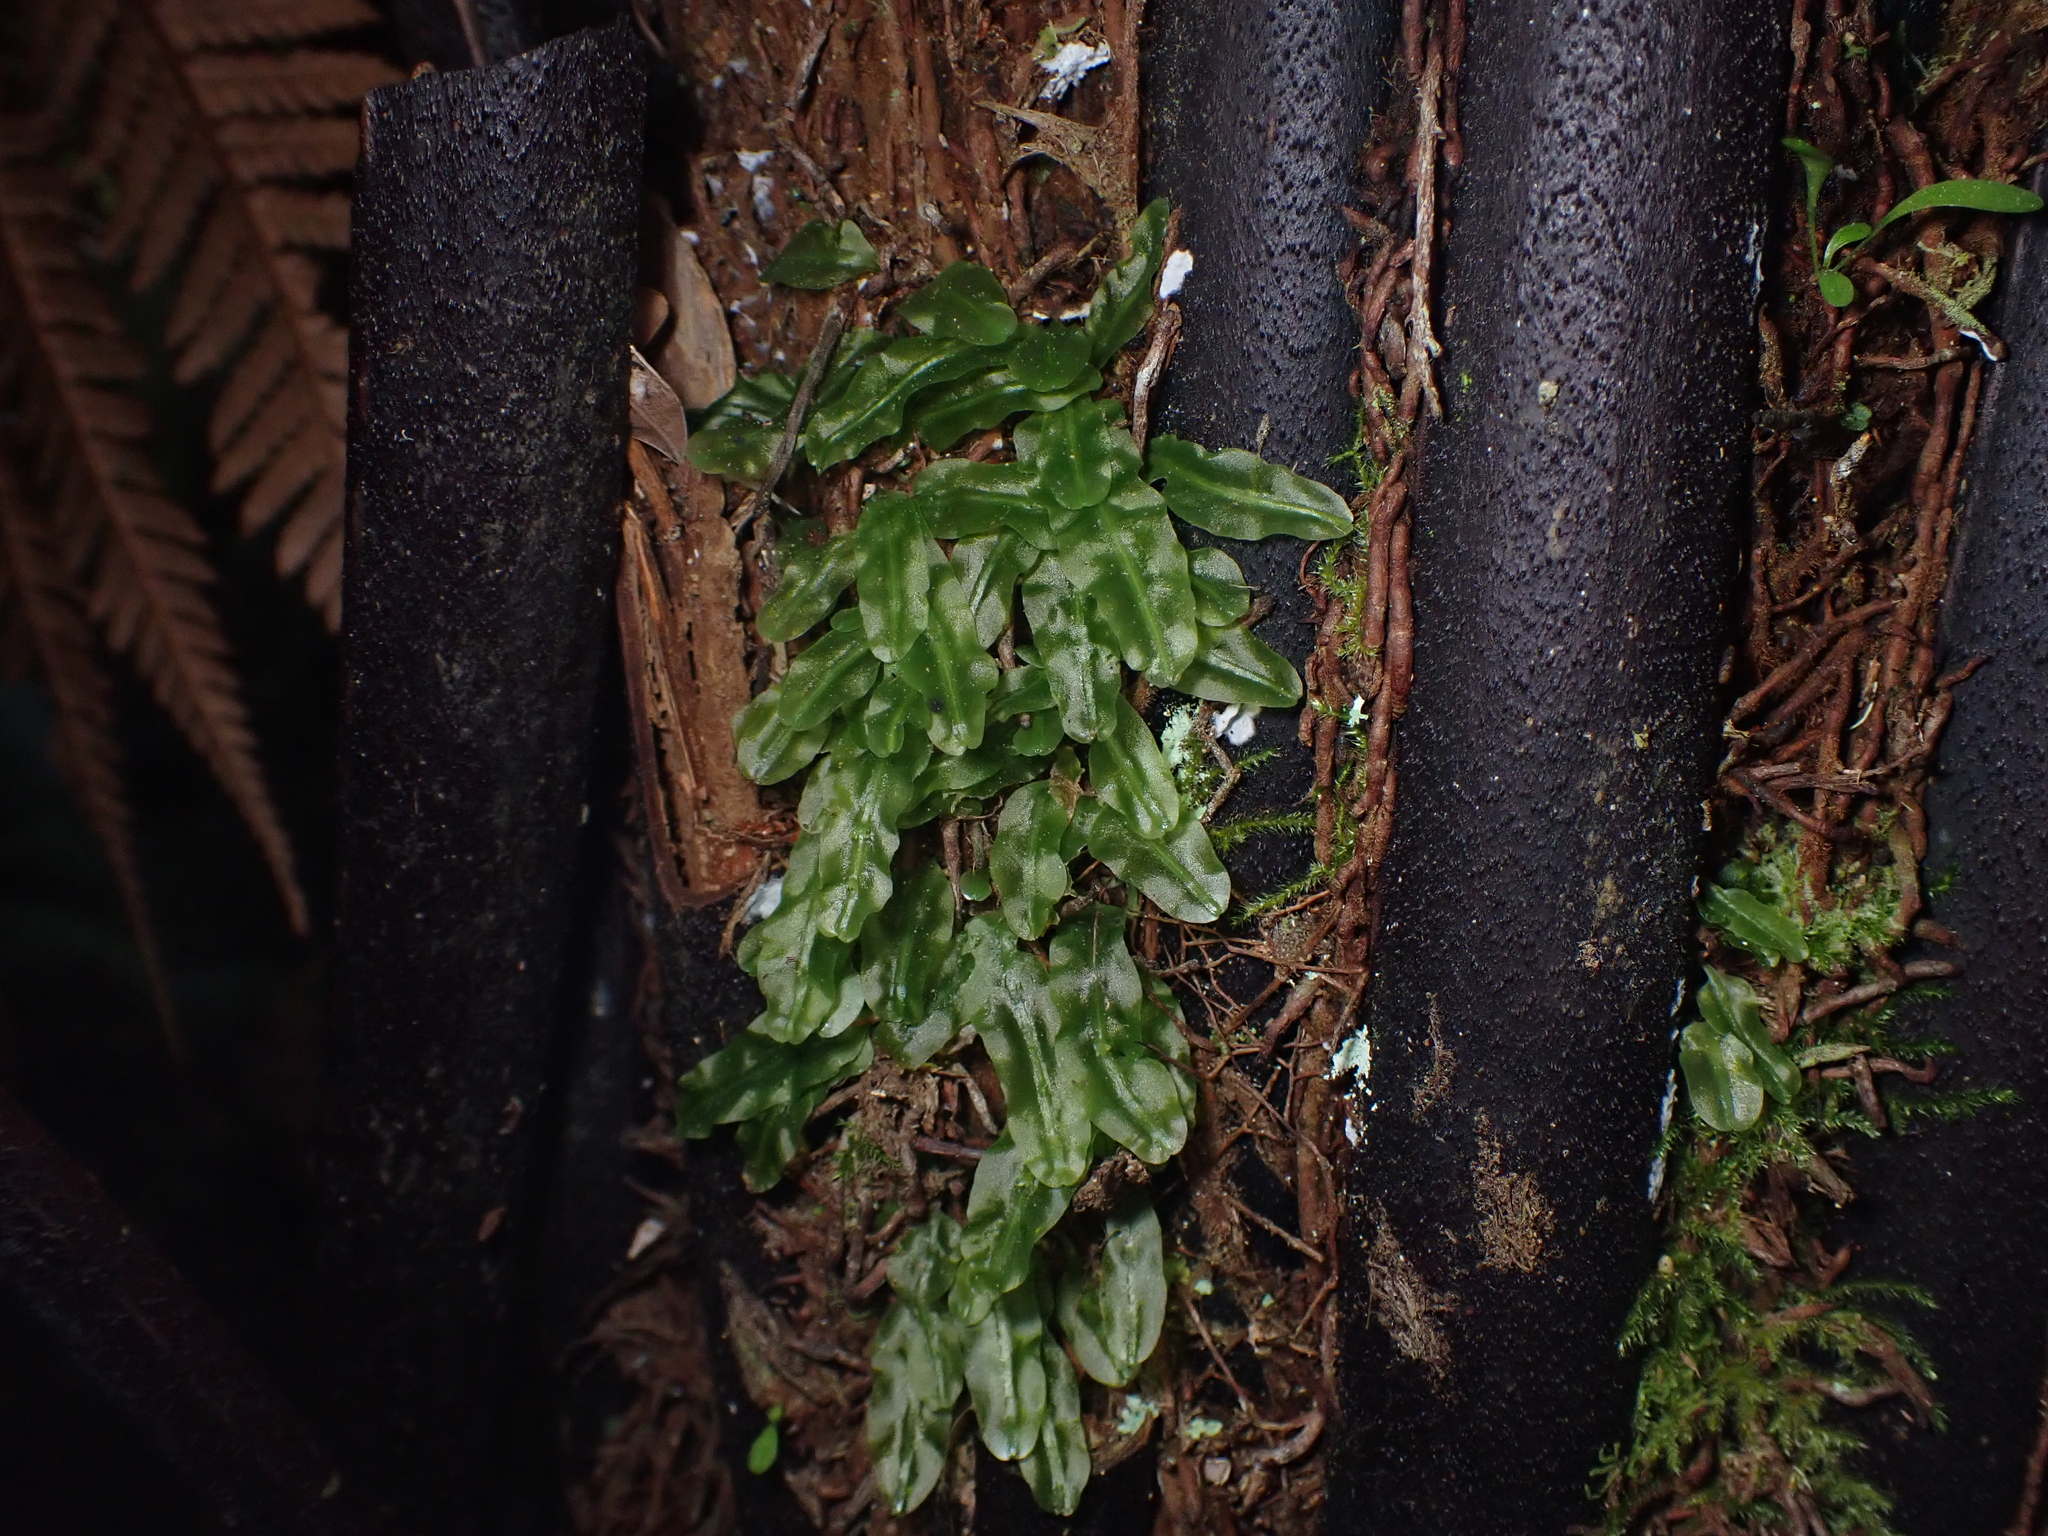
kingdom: Plantae
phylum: Marchantiophyta
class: Jungermanniopsida
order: Pallaviciniales
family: Pallaviciniaceae
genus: Symphyogyna
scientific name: Symphyogyna subsimplex
